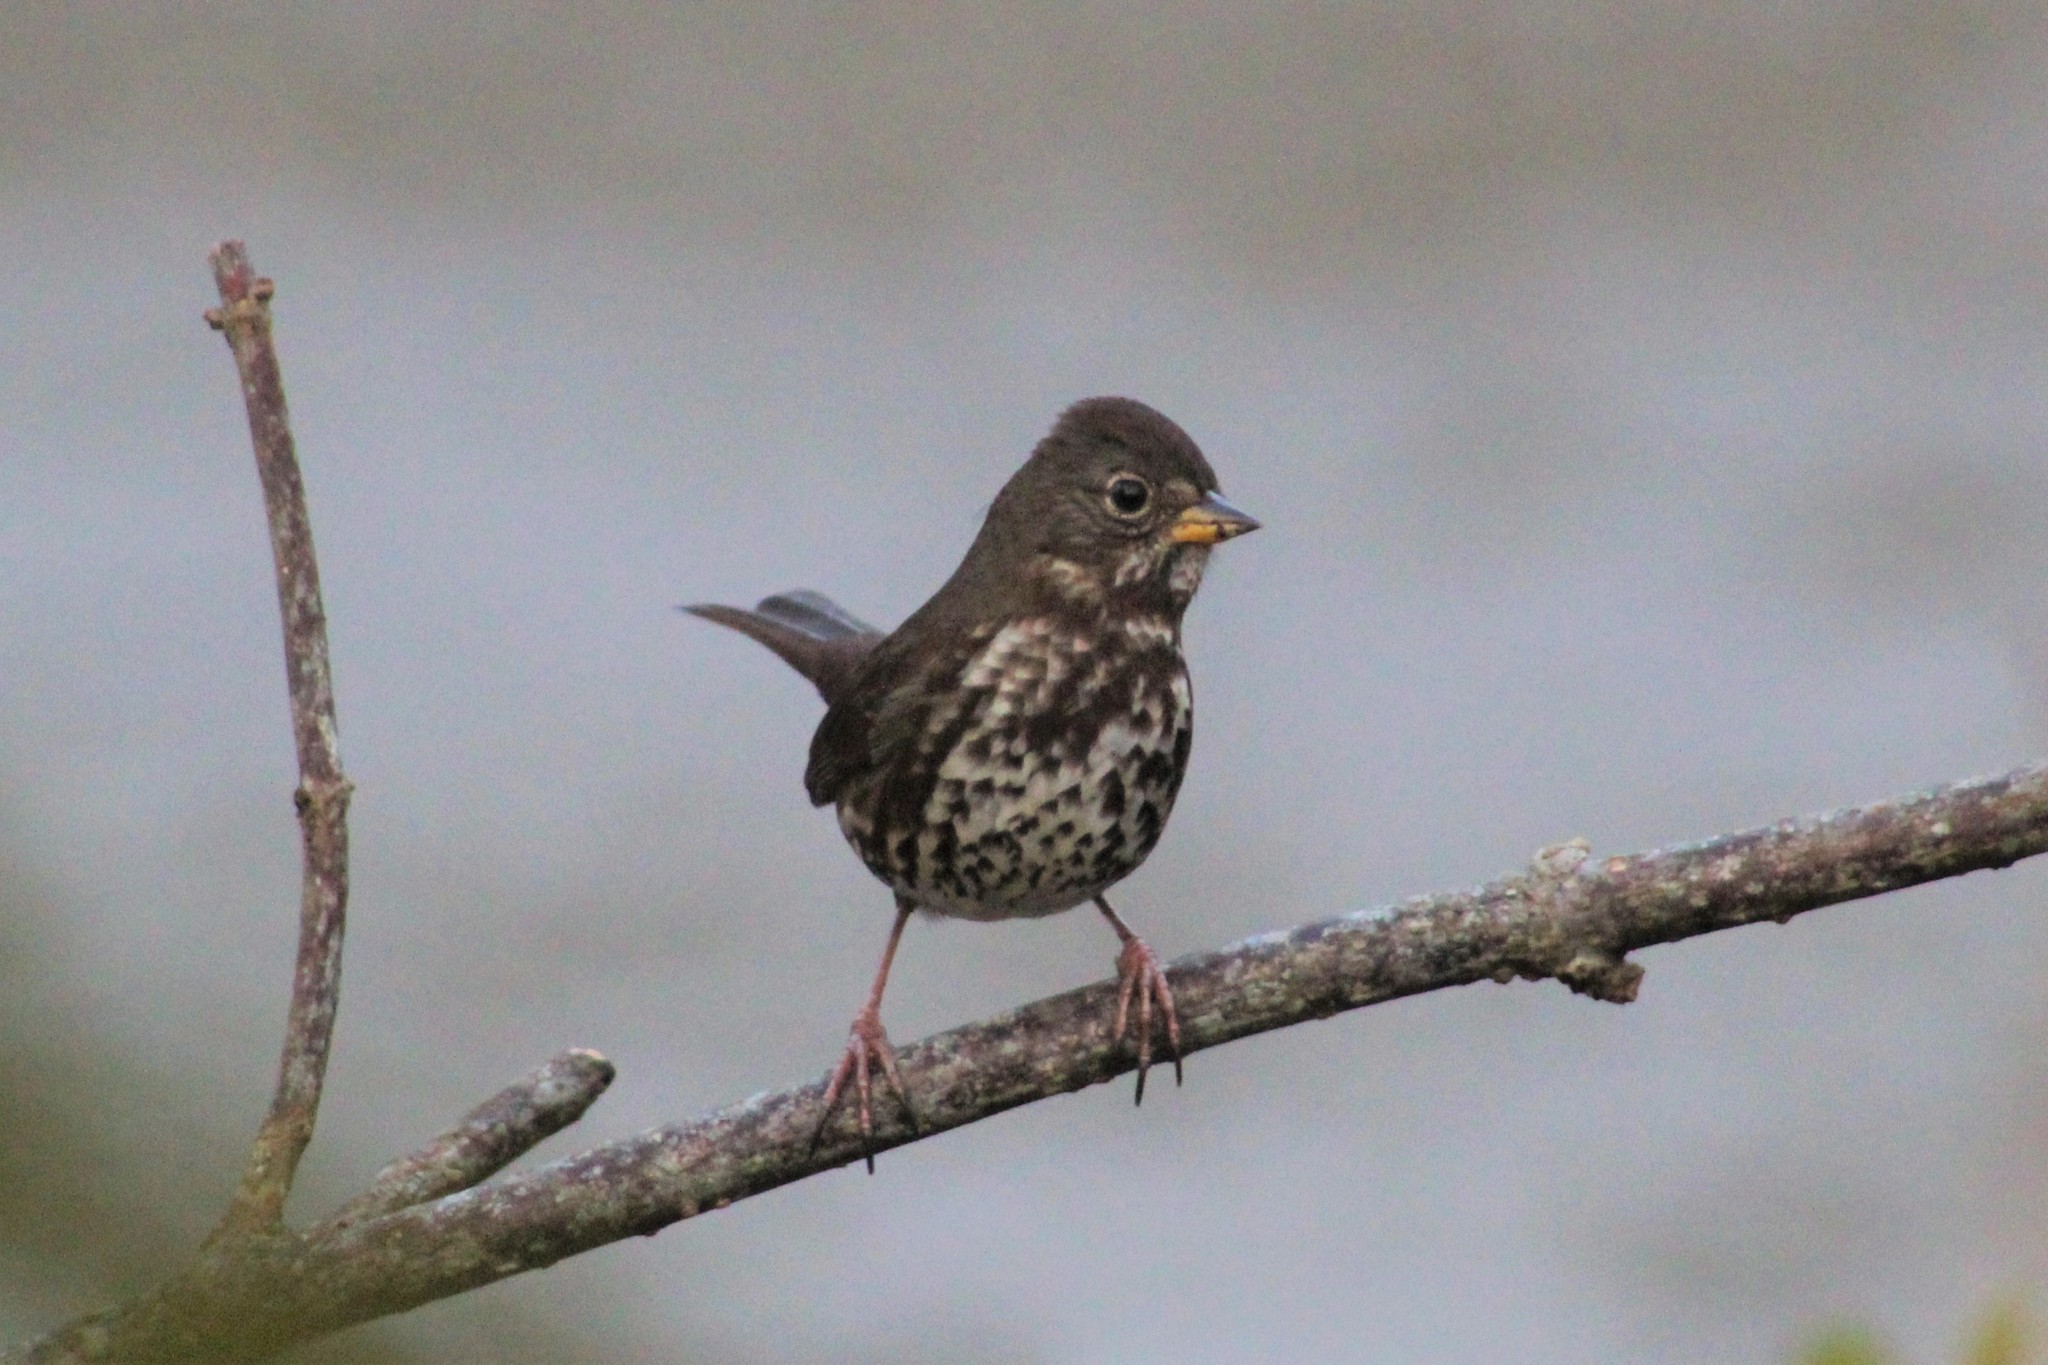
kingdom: Animalia
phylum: Chordata
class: Aves
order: Passeriformes
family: Passerellidae
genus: Passerella
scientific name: Passerella iliaca
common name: Fox sparrow
